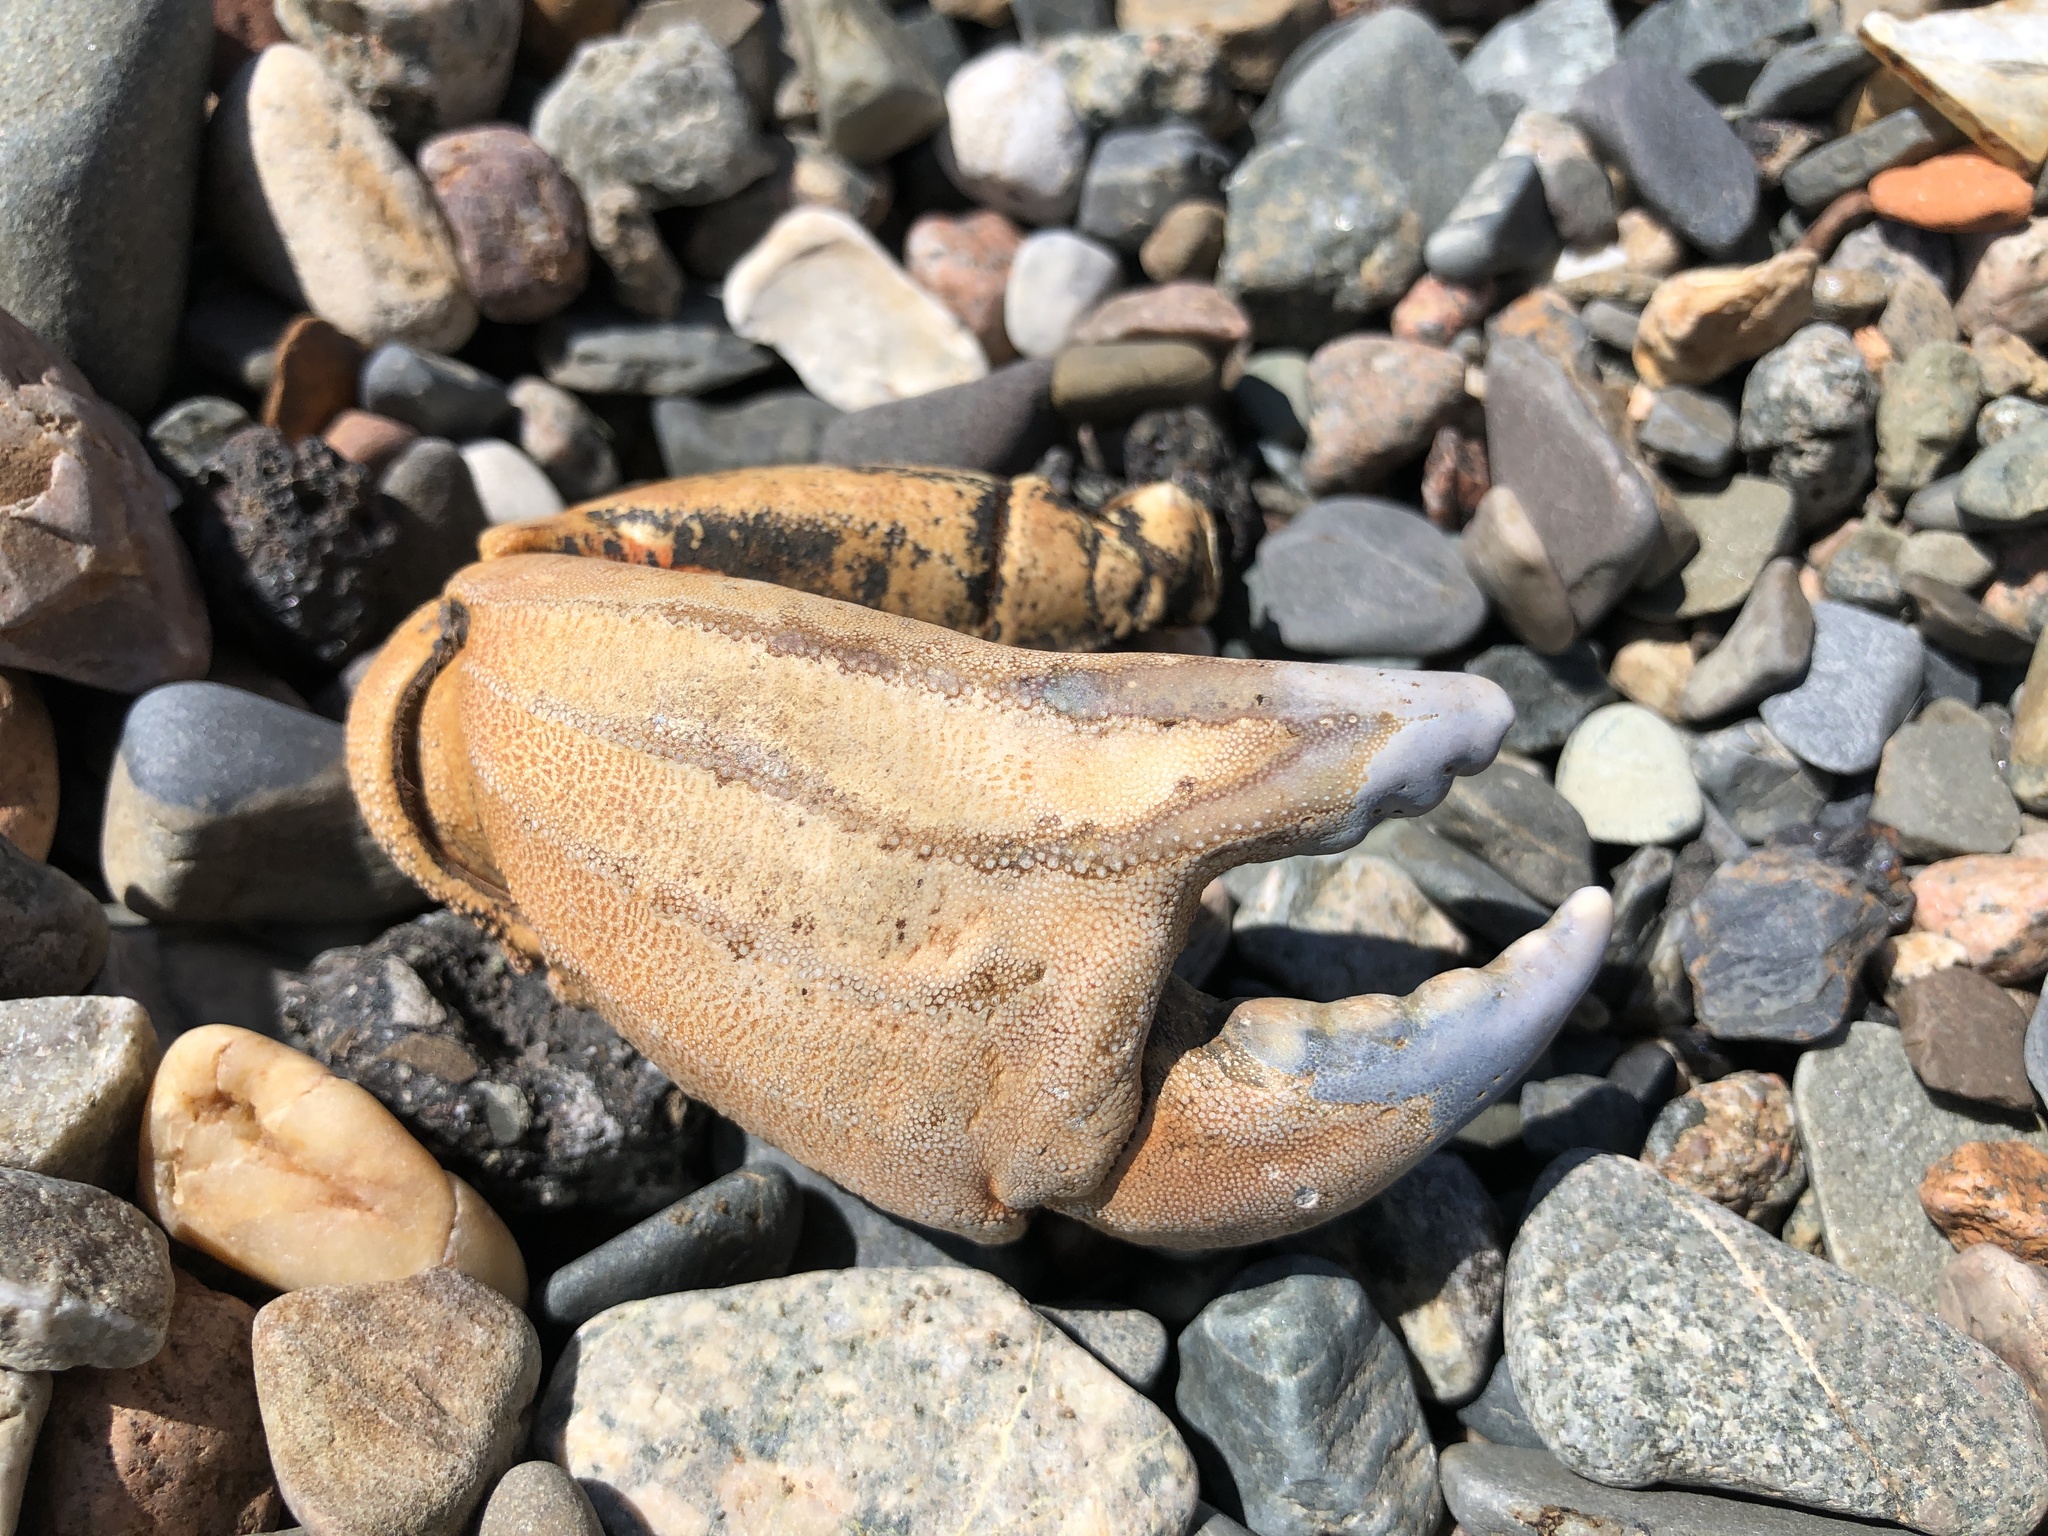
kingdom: Animalia
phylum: Arthropoda
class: Malacostraca
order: Decapoda
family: Cancridae
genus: Cancer
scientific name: Cancer borealis
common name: Jonah crab
